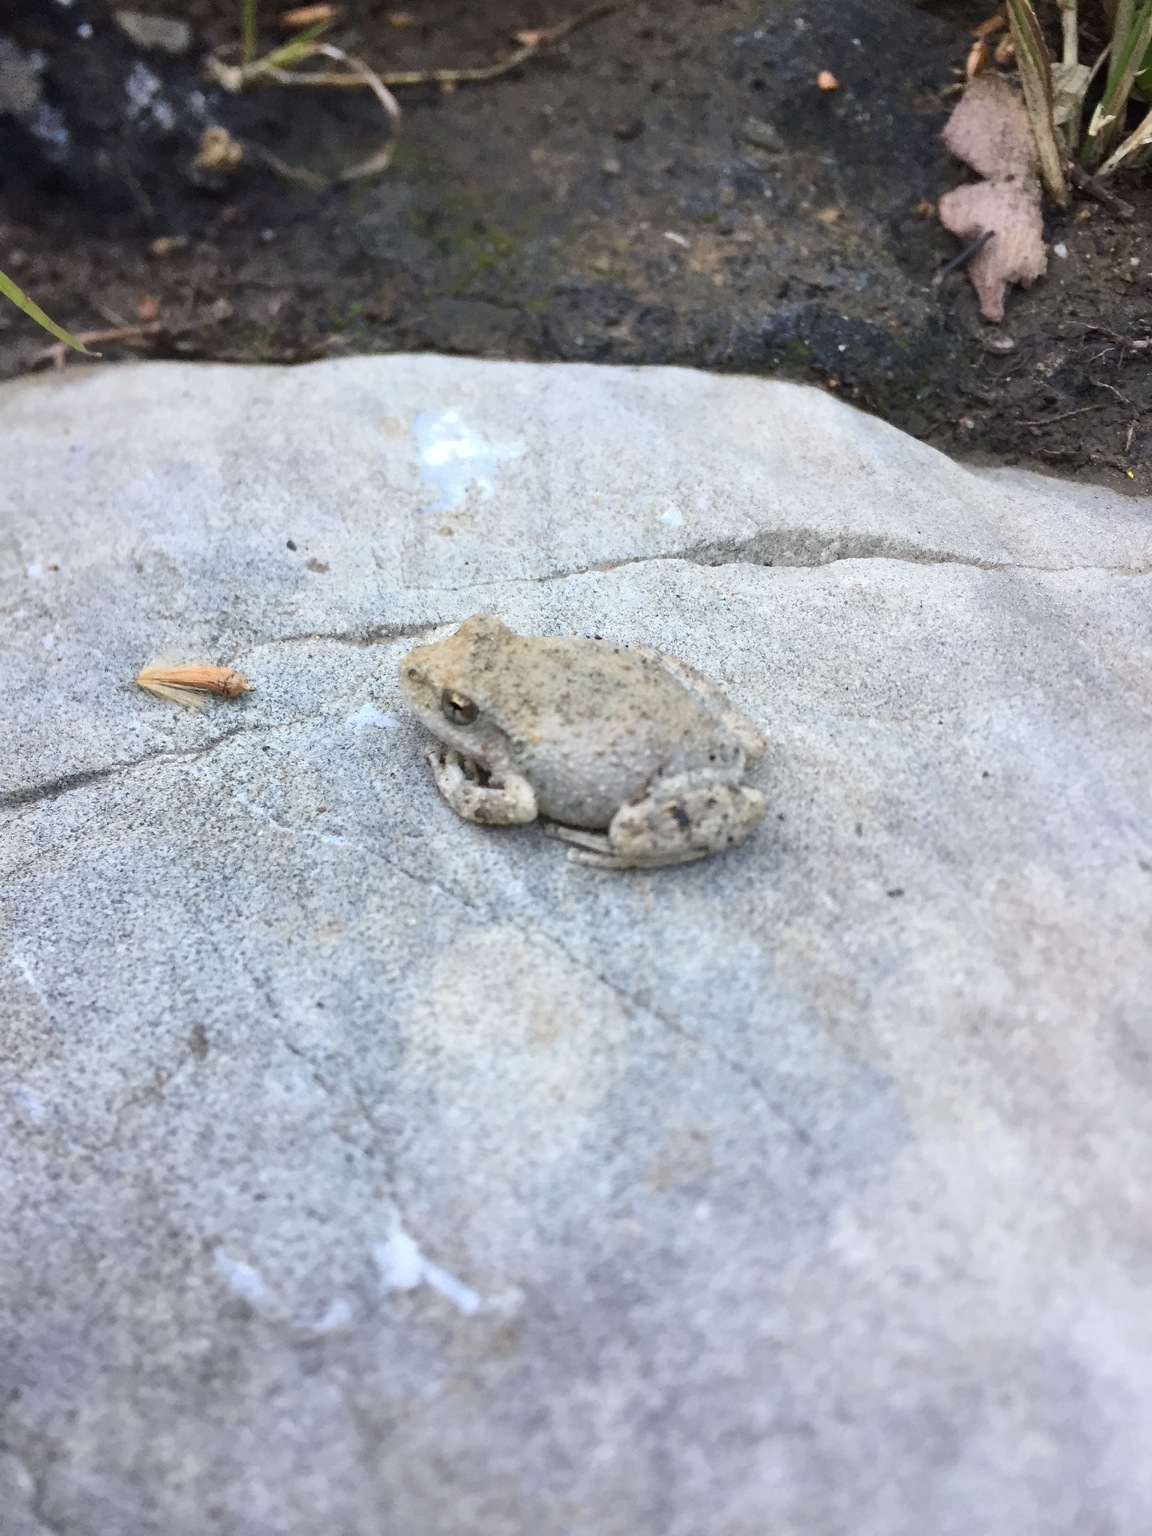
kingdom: Animalia
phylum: Chordata
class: Amphibia
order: Anura
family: Hylidae
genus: Pseudacris
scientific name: Pseudacris cadaverina
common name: California chorus frog
